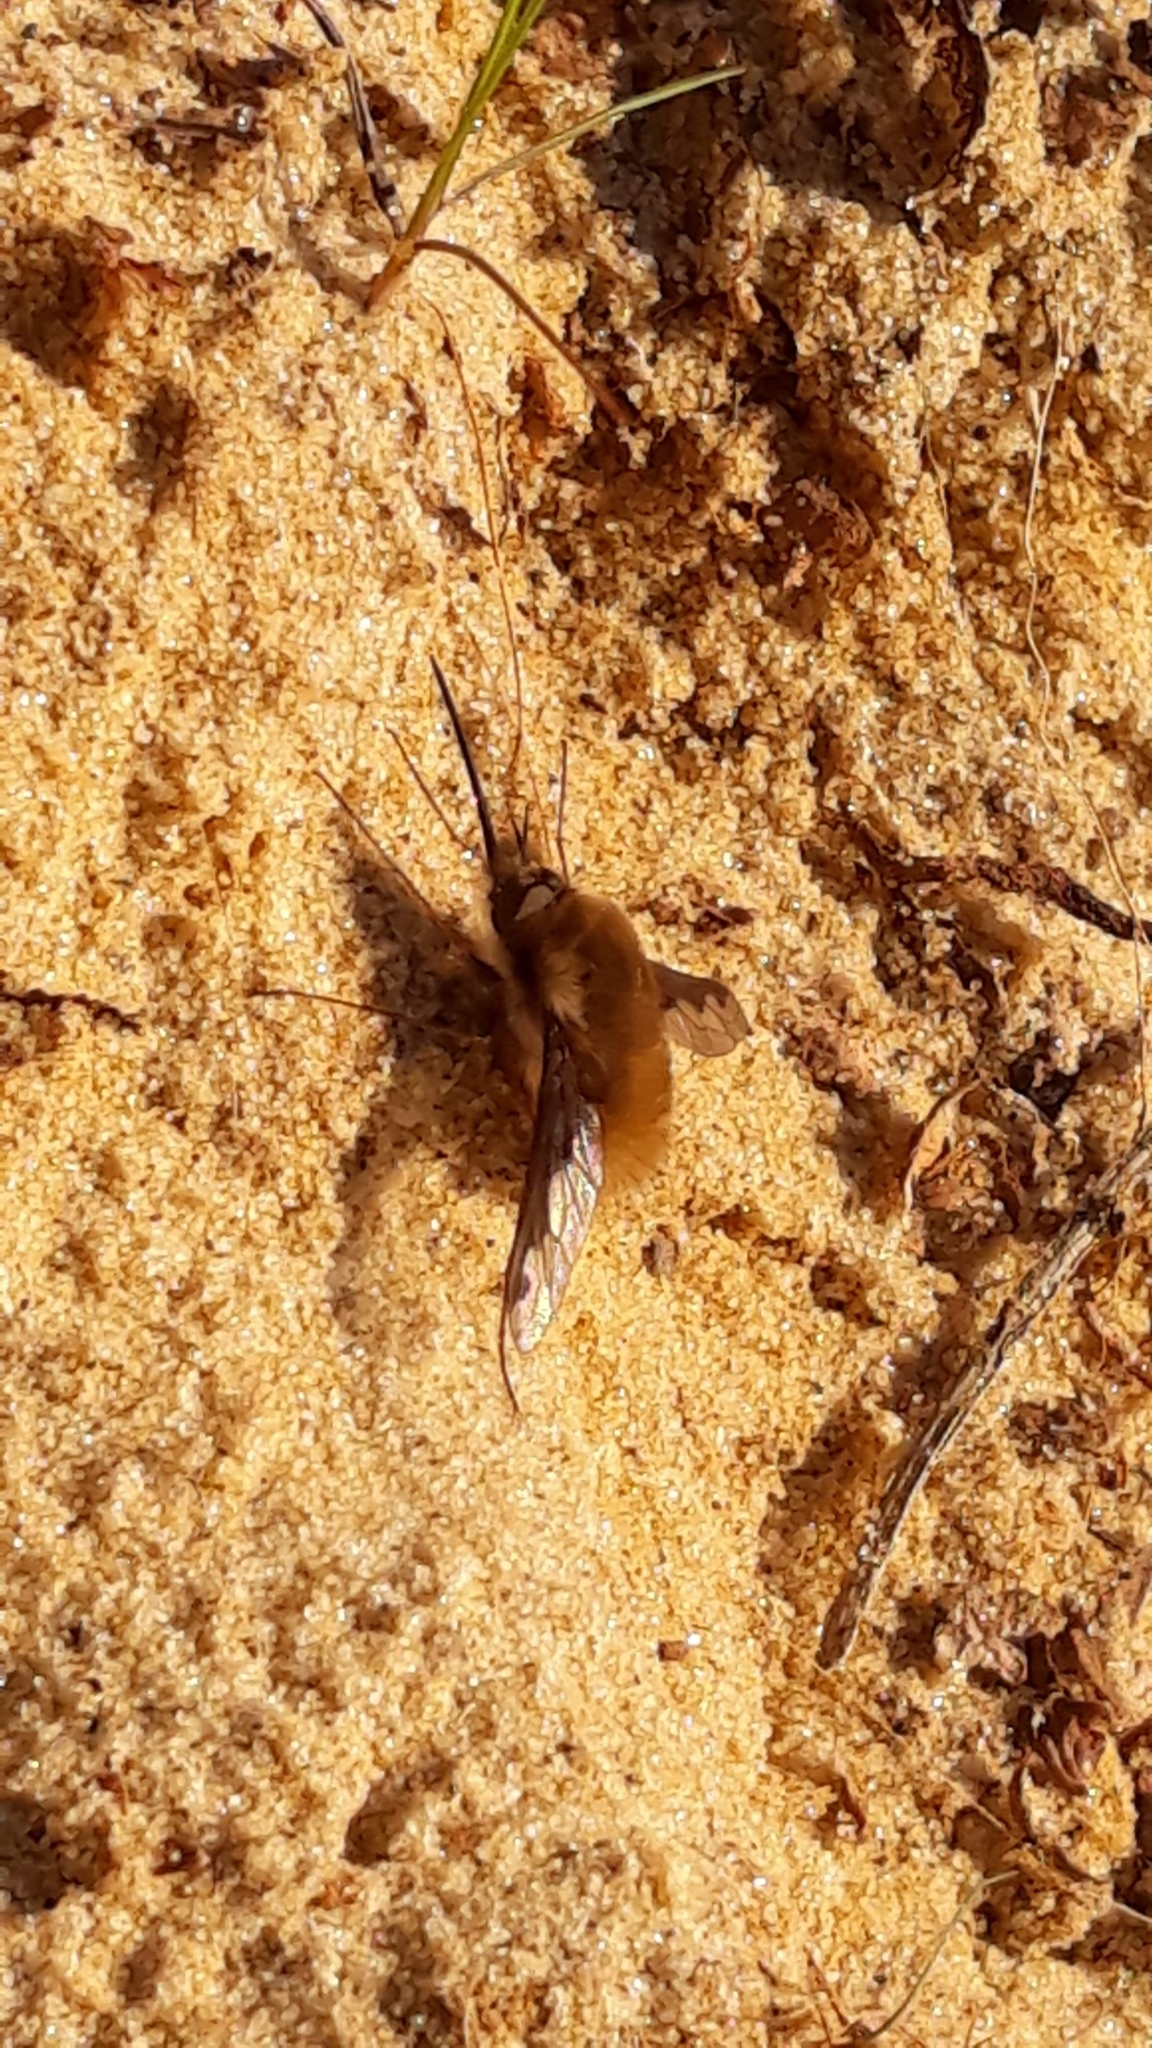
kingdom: Animalia
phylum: Arthropoda
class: Insecta
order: Diptera
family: Bombyliidae
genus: Bombylius
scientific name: Bombylius major
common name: Bee fly
